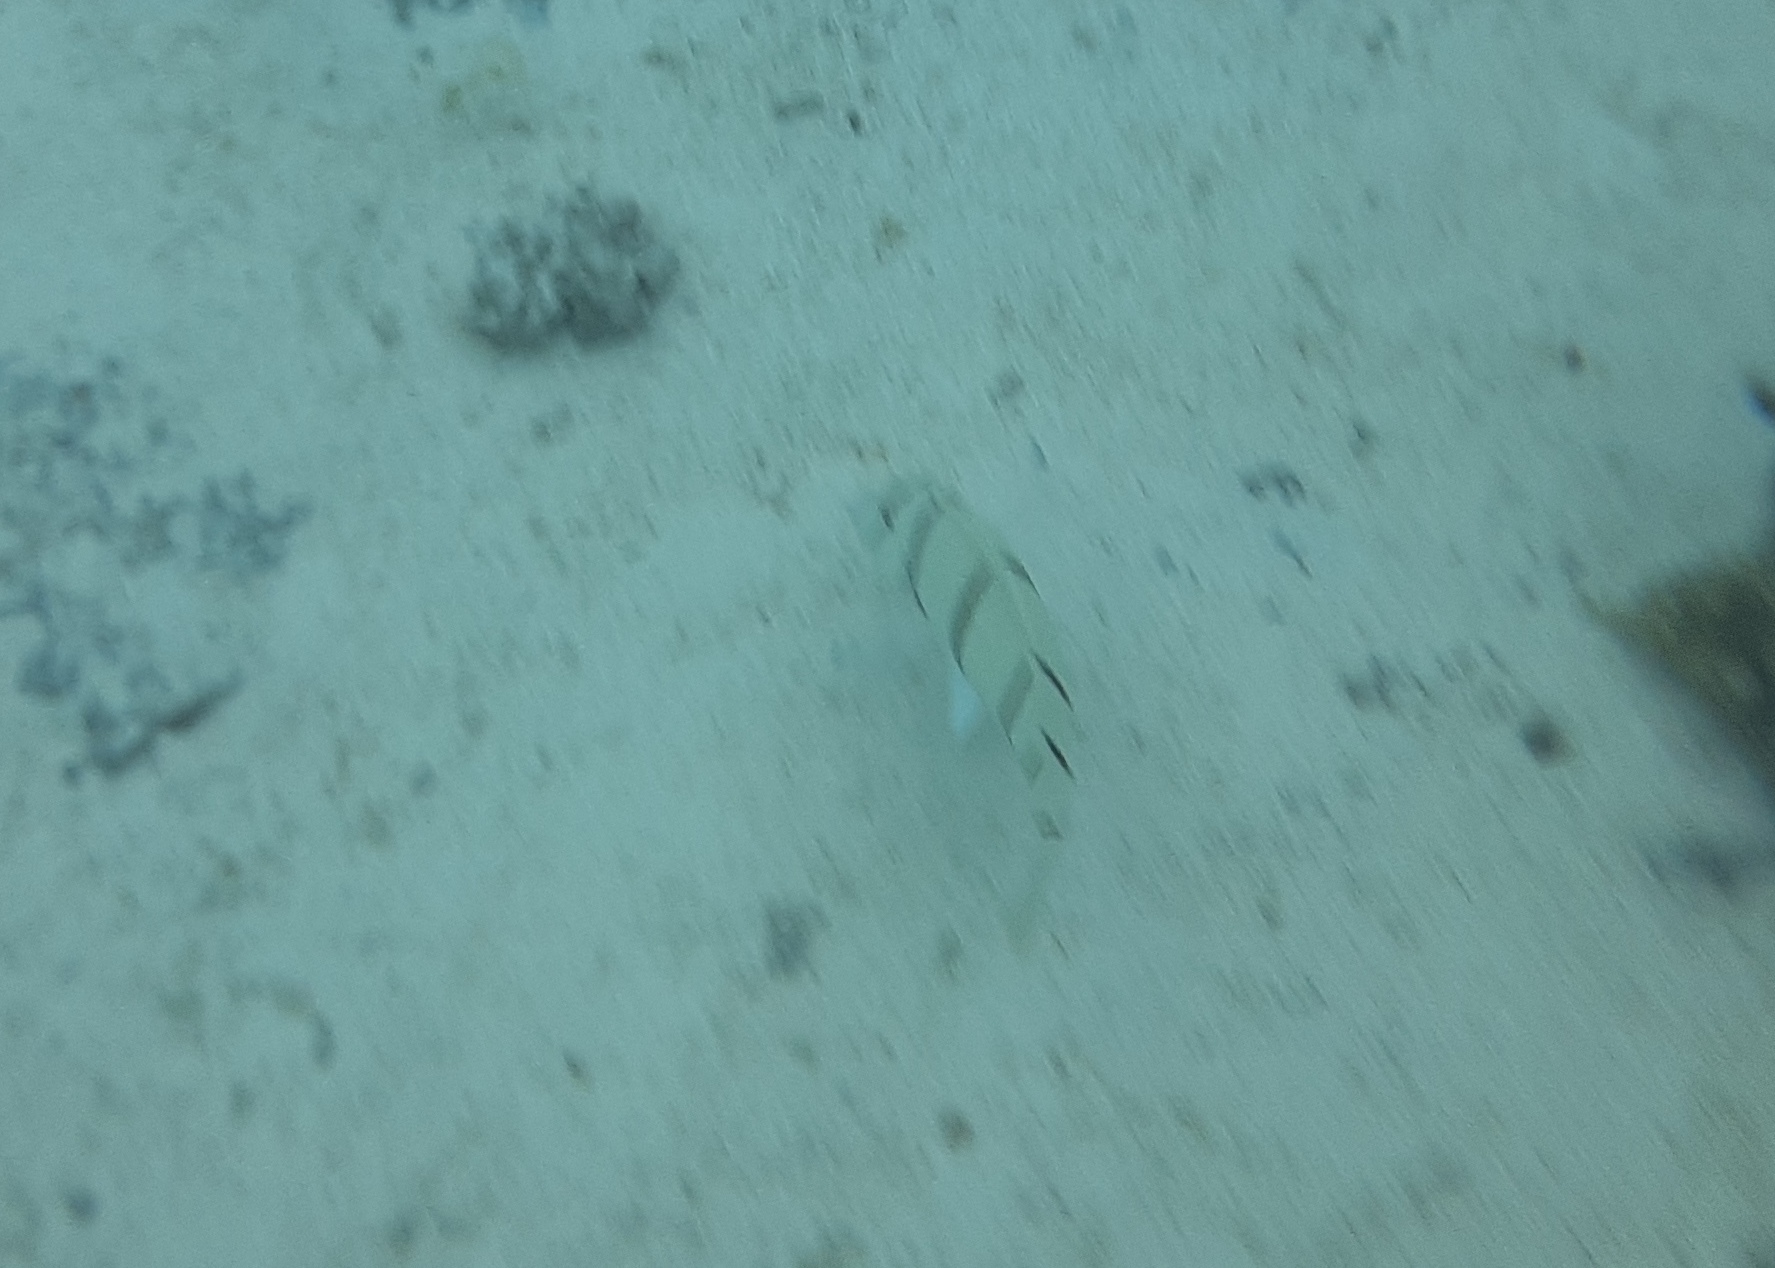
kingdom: Animalia
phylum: Chordata
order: Perciformes
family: Acanthuridae
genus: Acanthurus
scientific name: Acanthurus triostegus
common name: Convict surgeonfish
